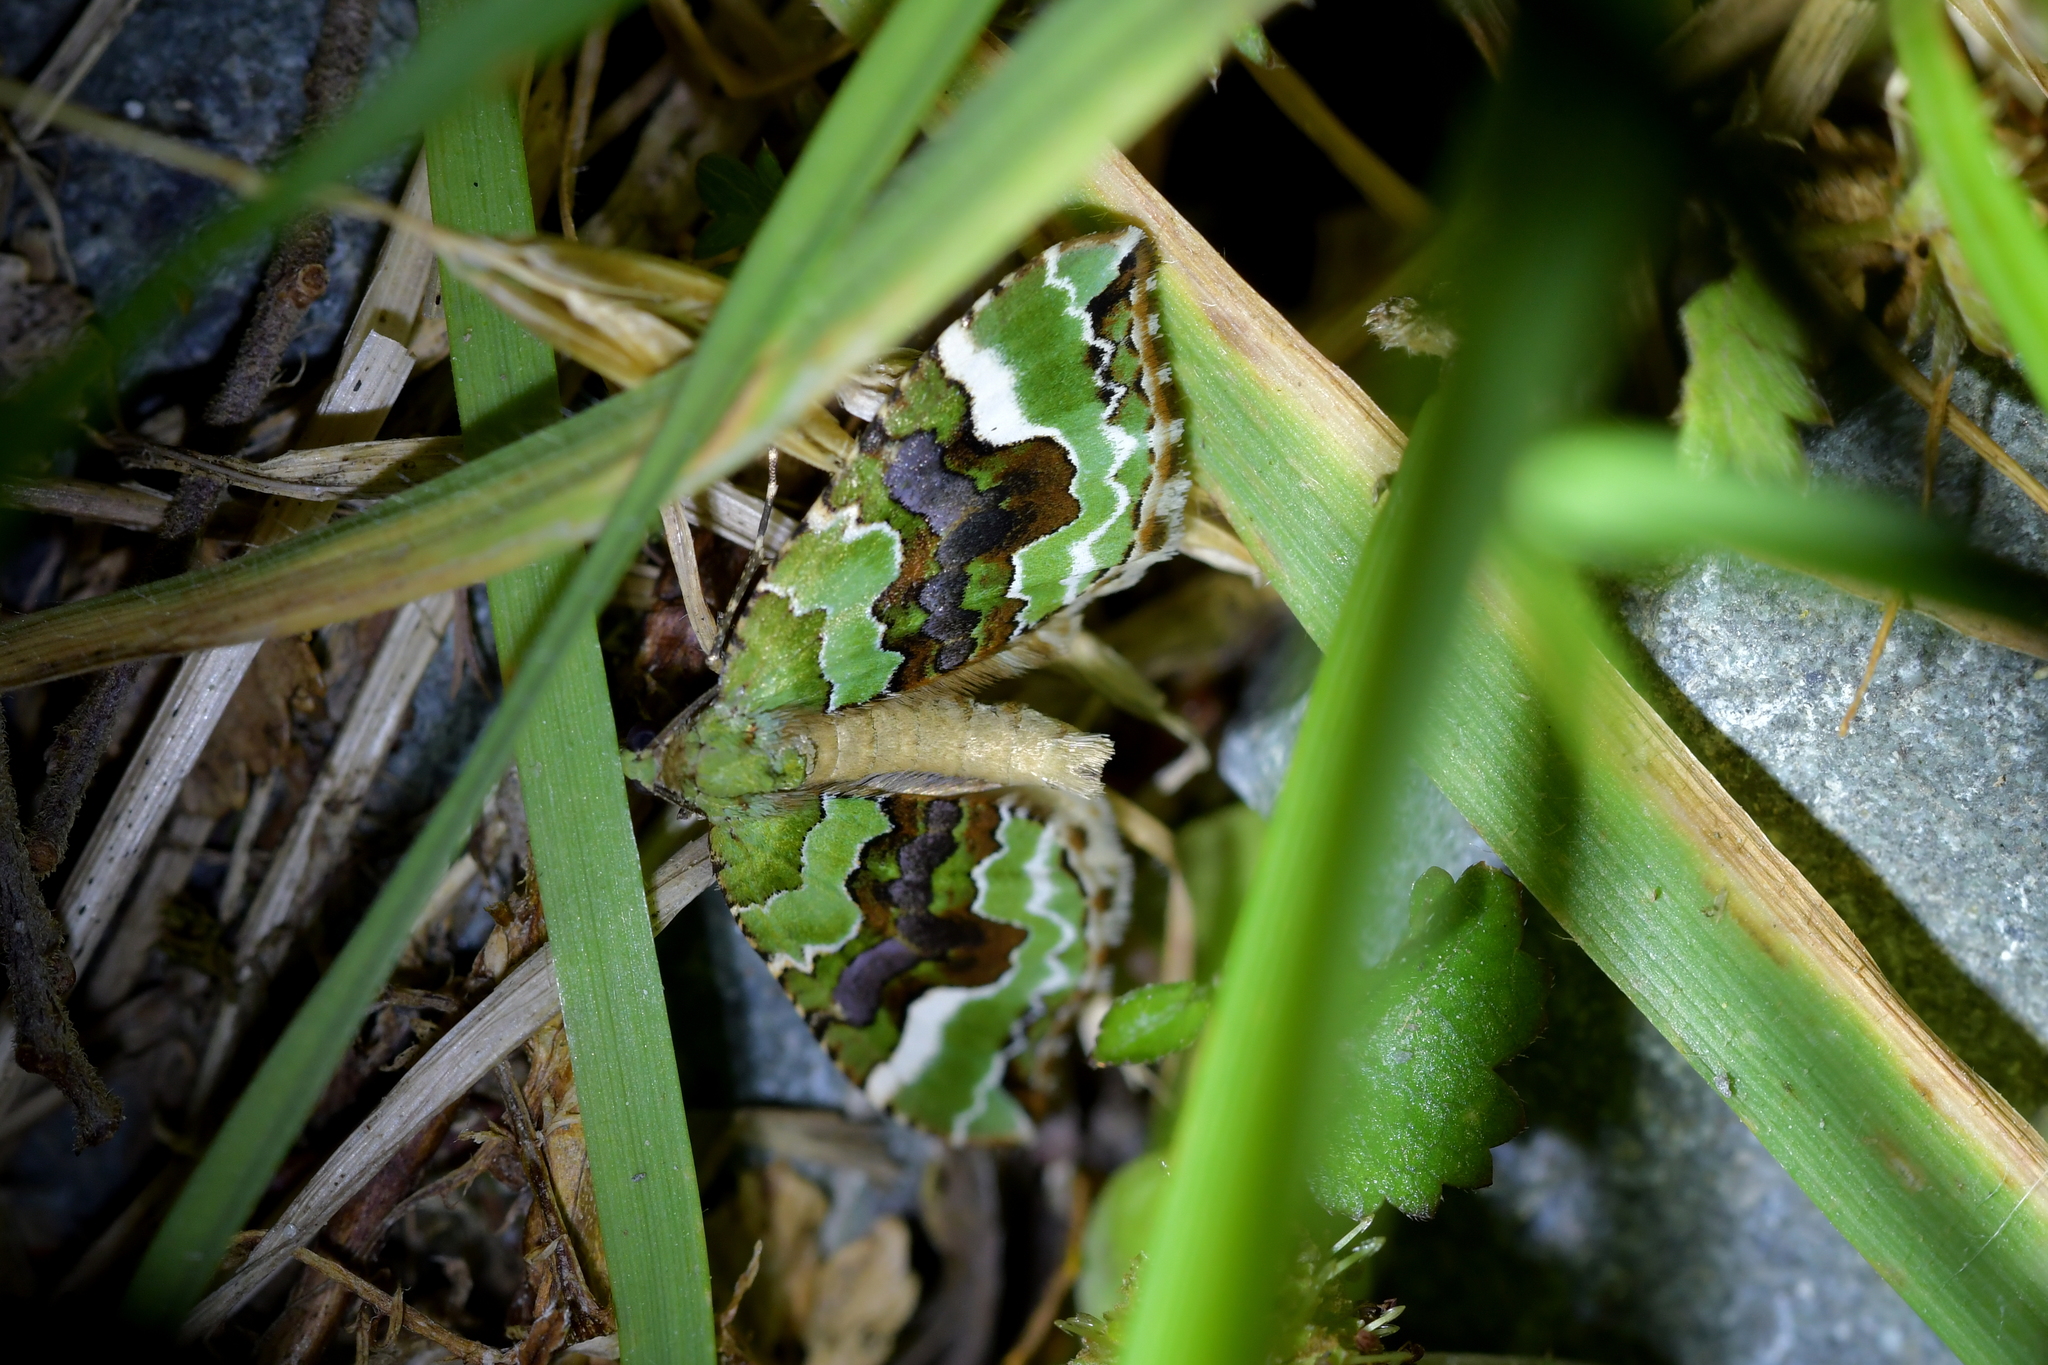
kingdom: Animalia
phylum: Arthropoda
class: Insecta
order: Lepidoptera
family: Geometridae
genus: Hydriomena
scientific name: Hydriomena purpurifera
